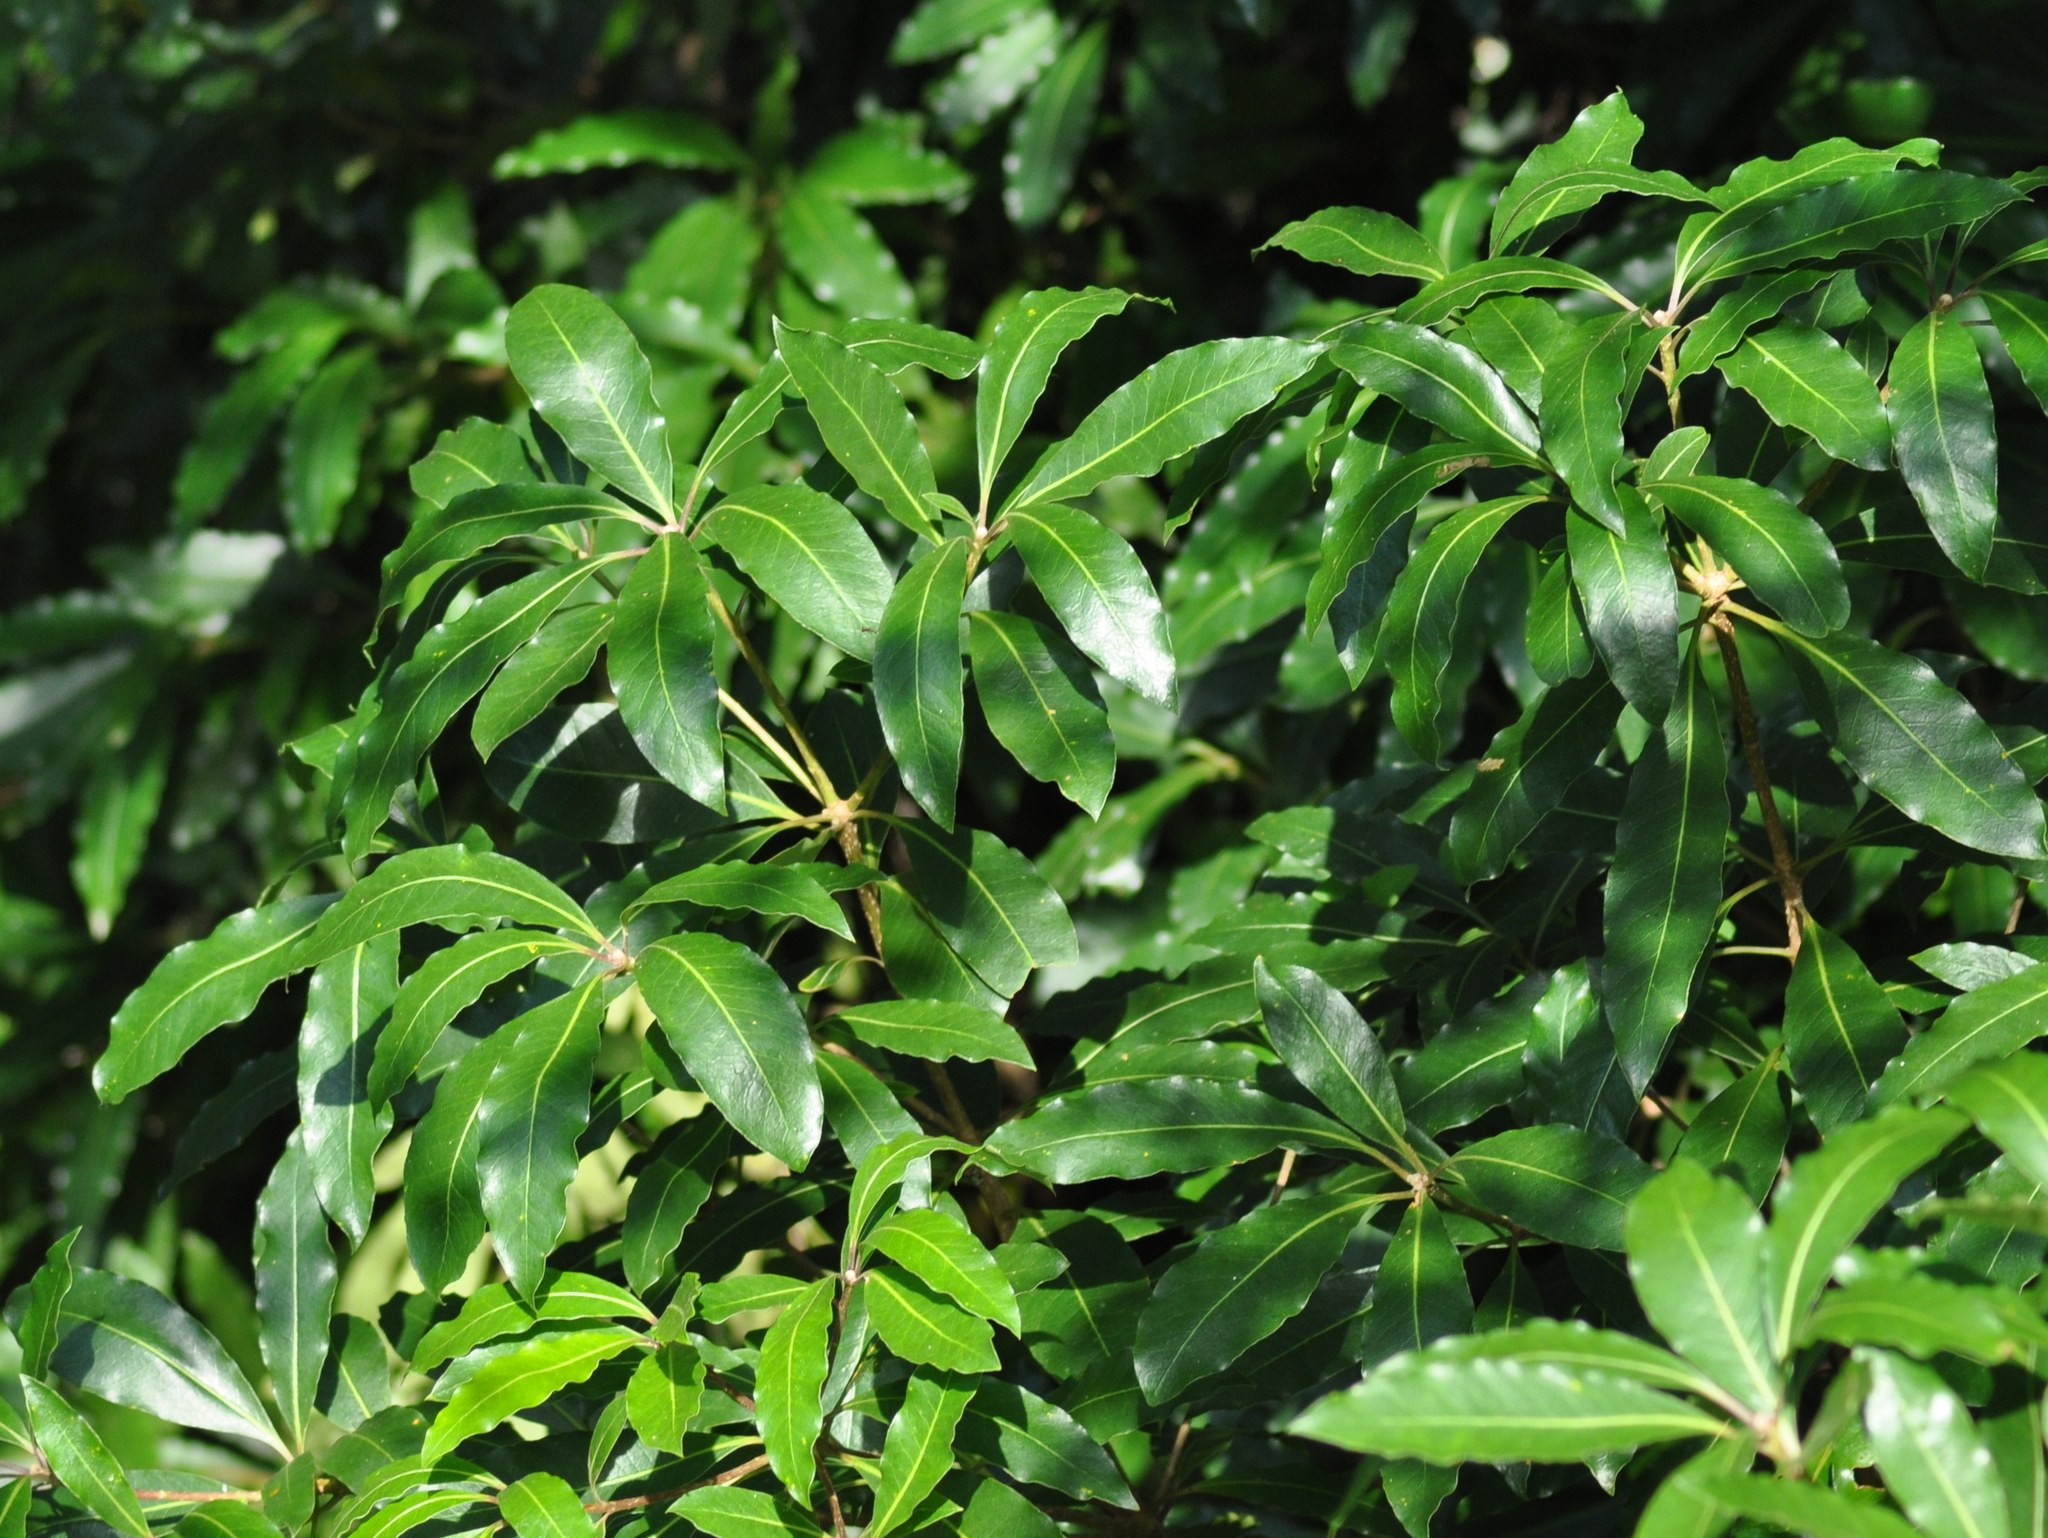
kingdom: Plantae
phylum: Tracheophyta
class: Magnoliopsida
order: Apiales
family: Pittosporaceae
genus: Pittosporum
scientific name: Pittosporum undulatum
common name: Australian cheesewood
